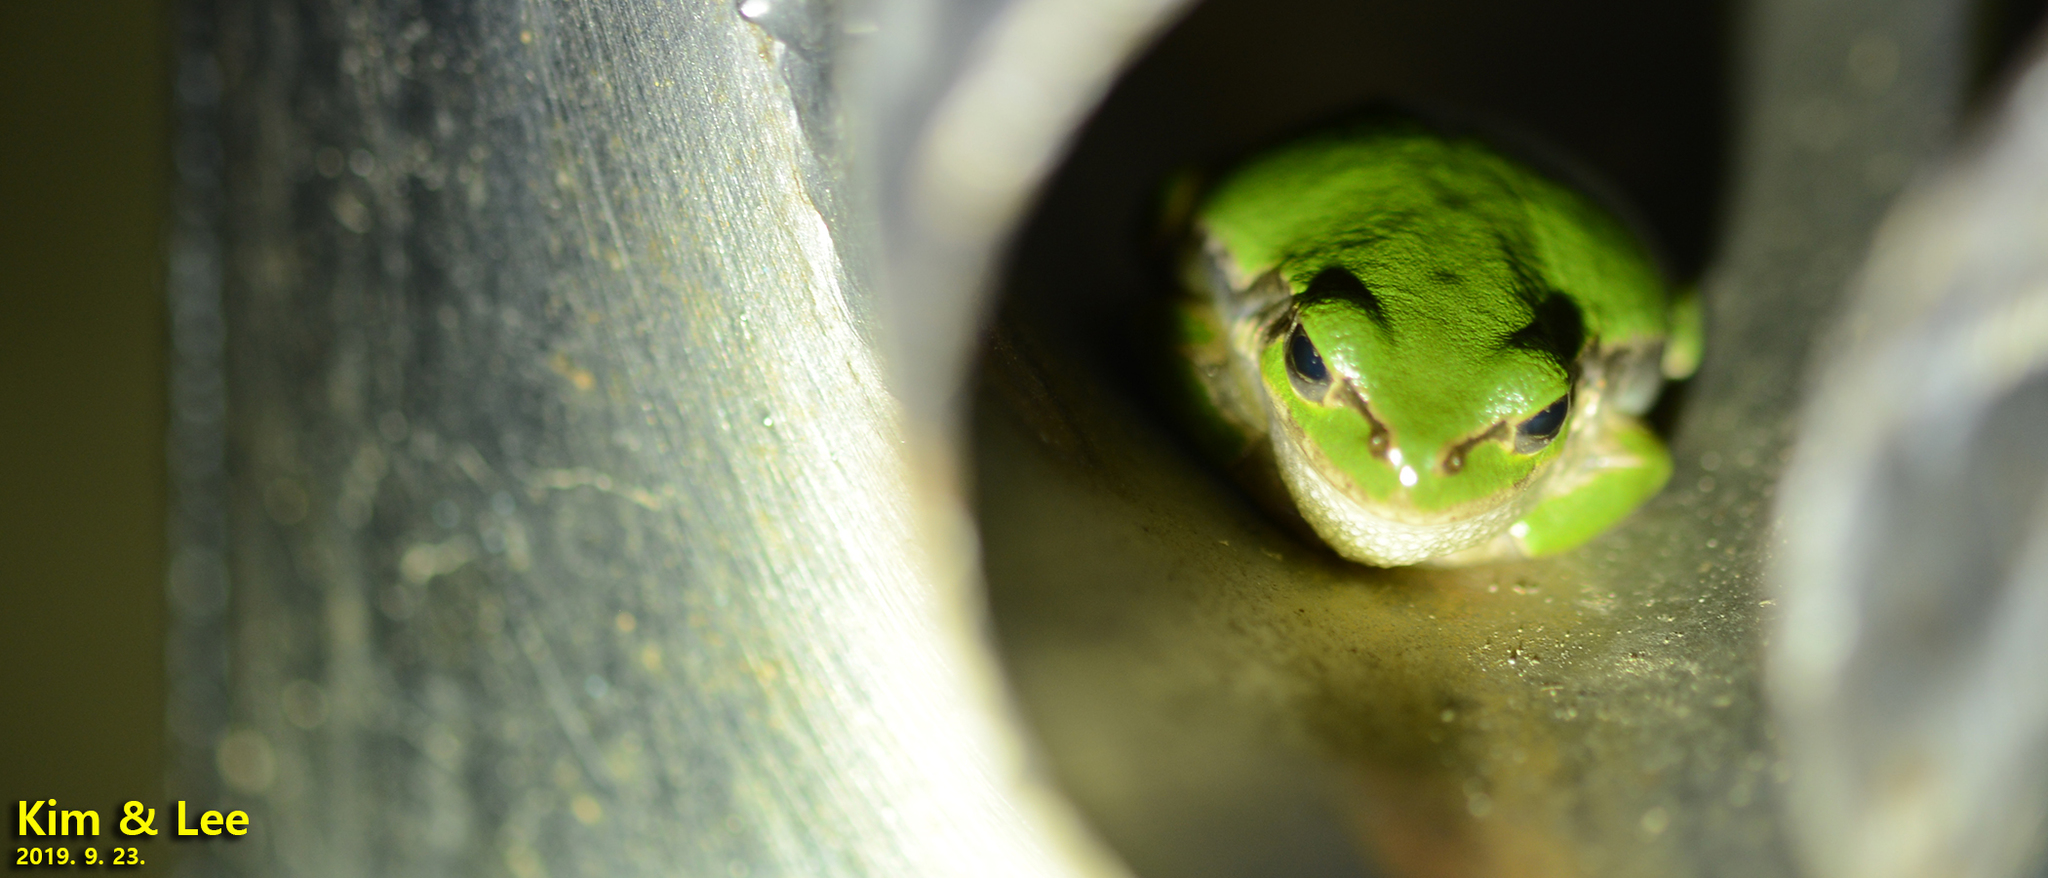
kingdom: Animalia
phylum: Chordata
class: Amphibia
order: Anura
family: Hylidae
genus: Dryophytes
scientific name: Dryophytes japonicus
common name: Japanese treefrog
